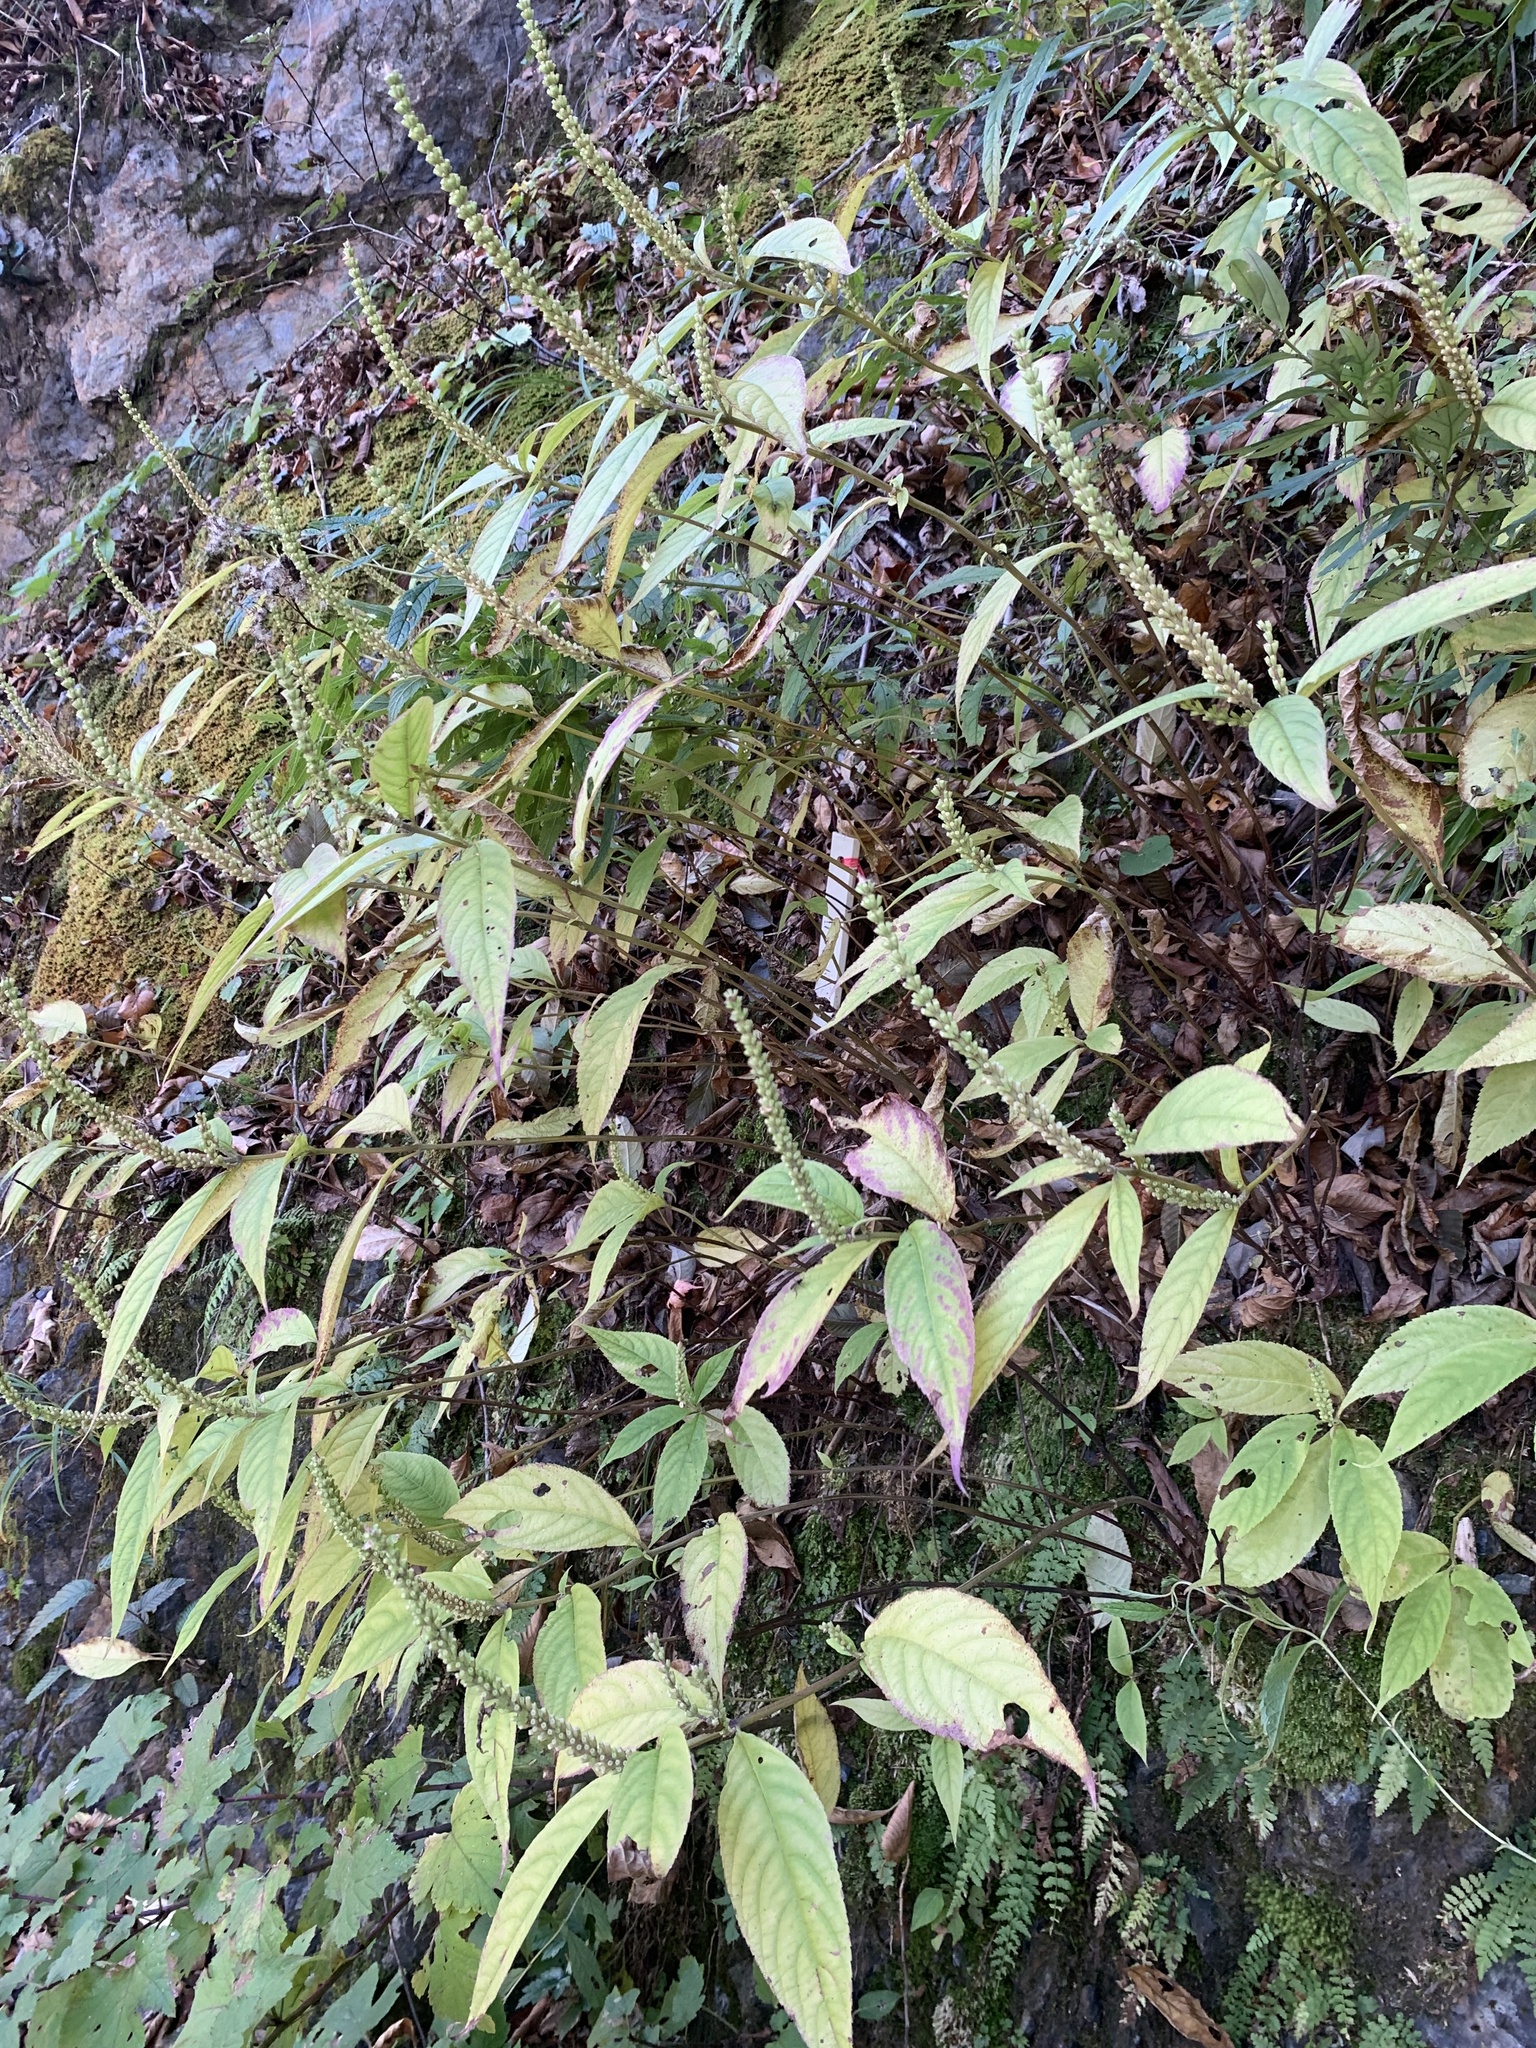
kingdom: Plantae
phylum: Tracheophyta
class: Magnoliopsida
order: Lamiales
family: Lamiaceae
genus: Comanthosphace
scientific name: Comanthosphace japonica
